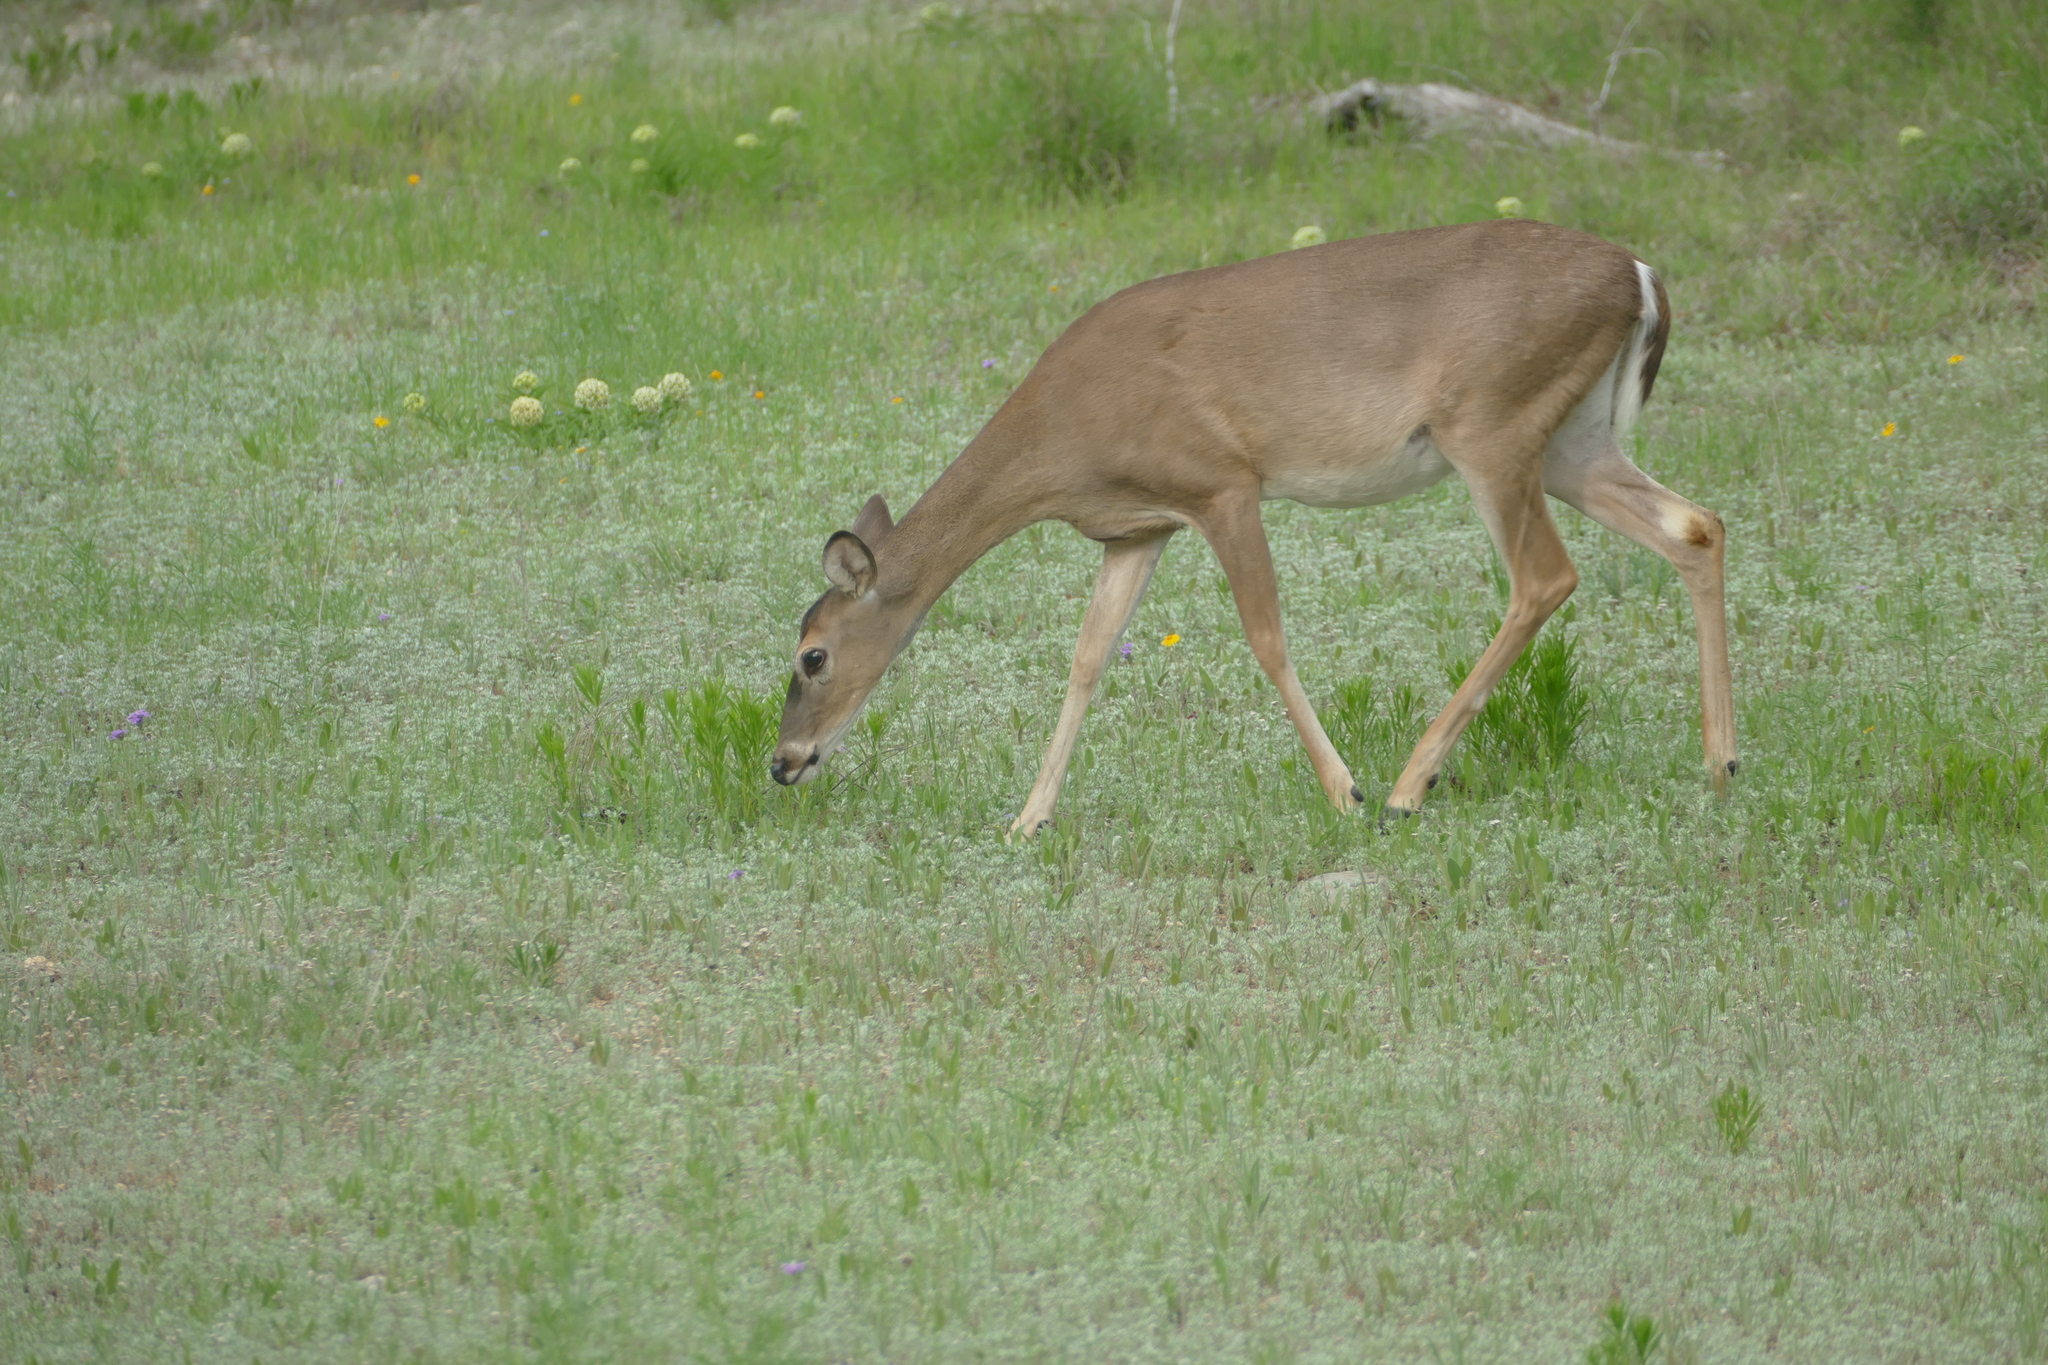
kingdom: Animalia
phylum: Chordata
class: Mammalia
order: Artiodactyla
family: Cervidae
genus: Odocoileus
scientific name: Odocoileus virginianus
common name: White-tailed deer
